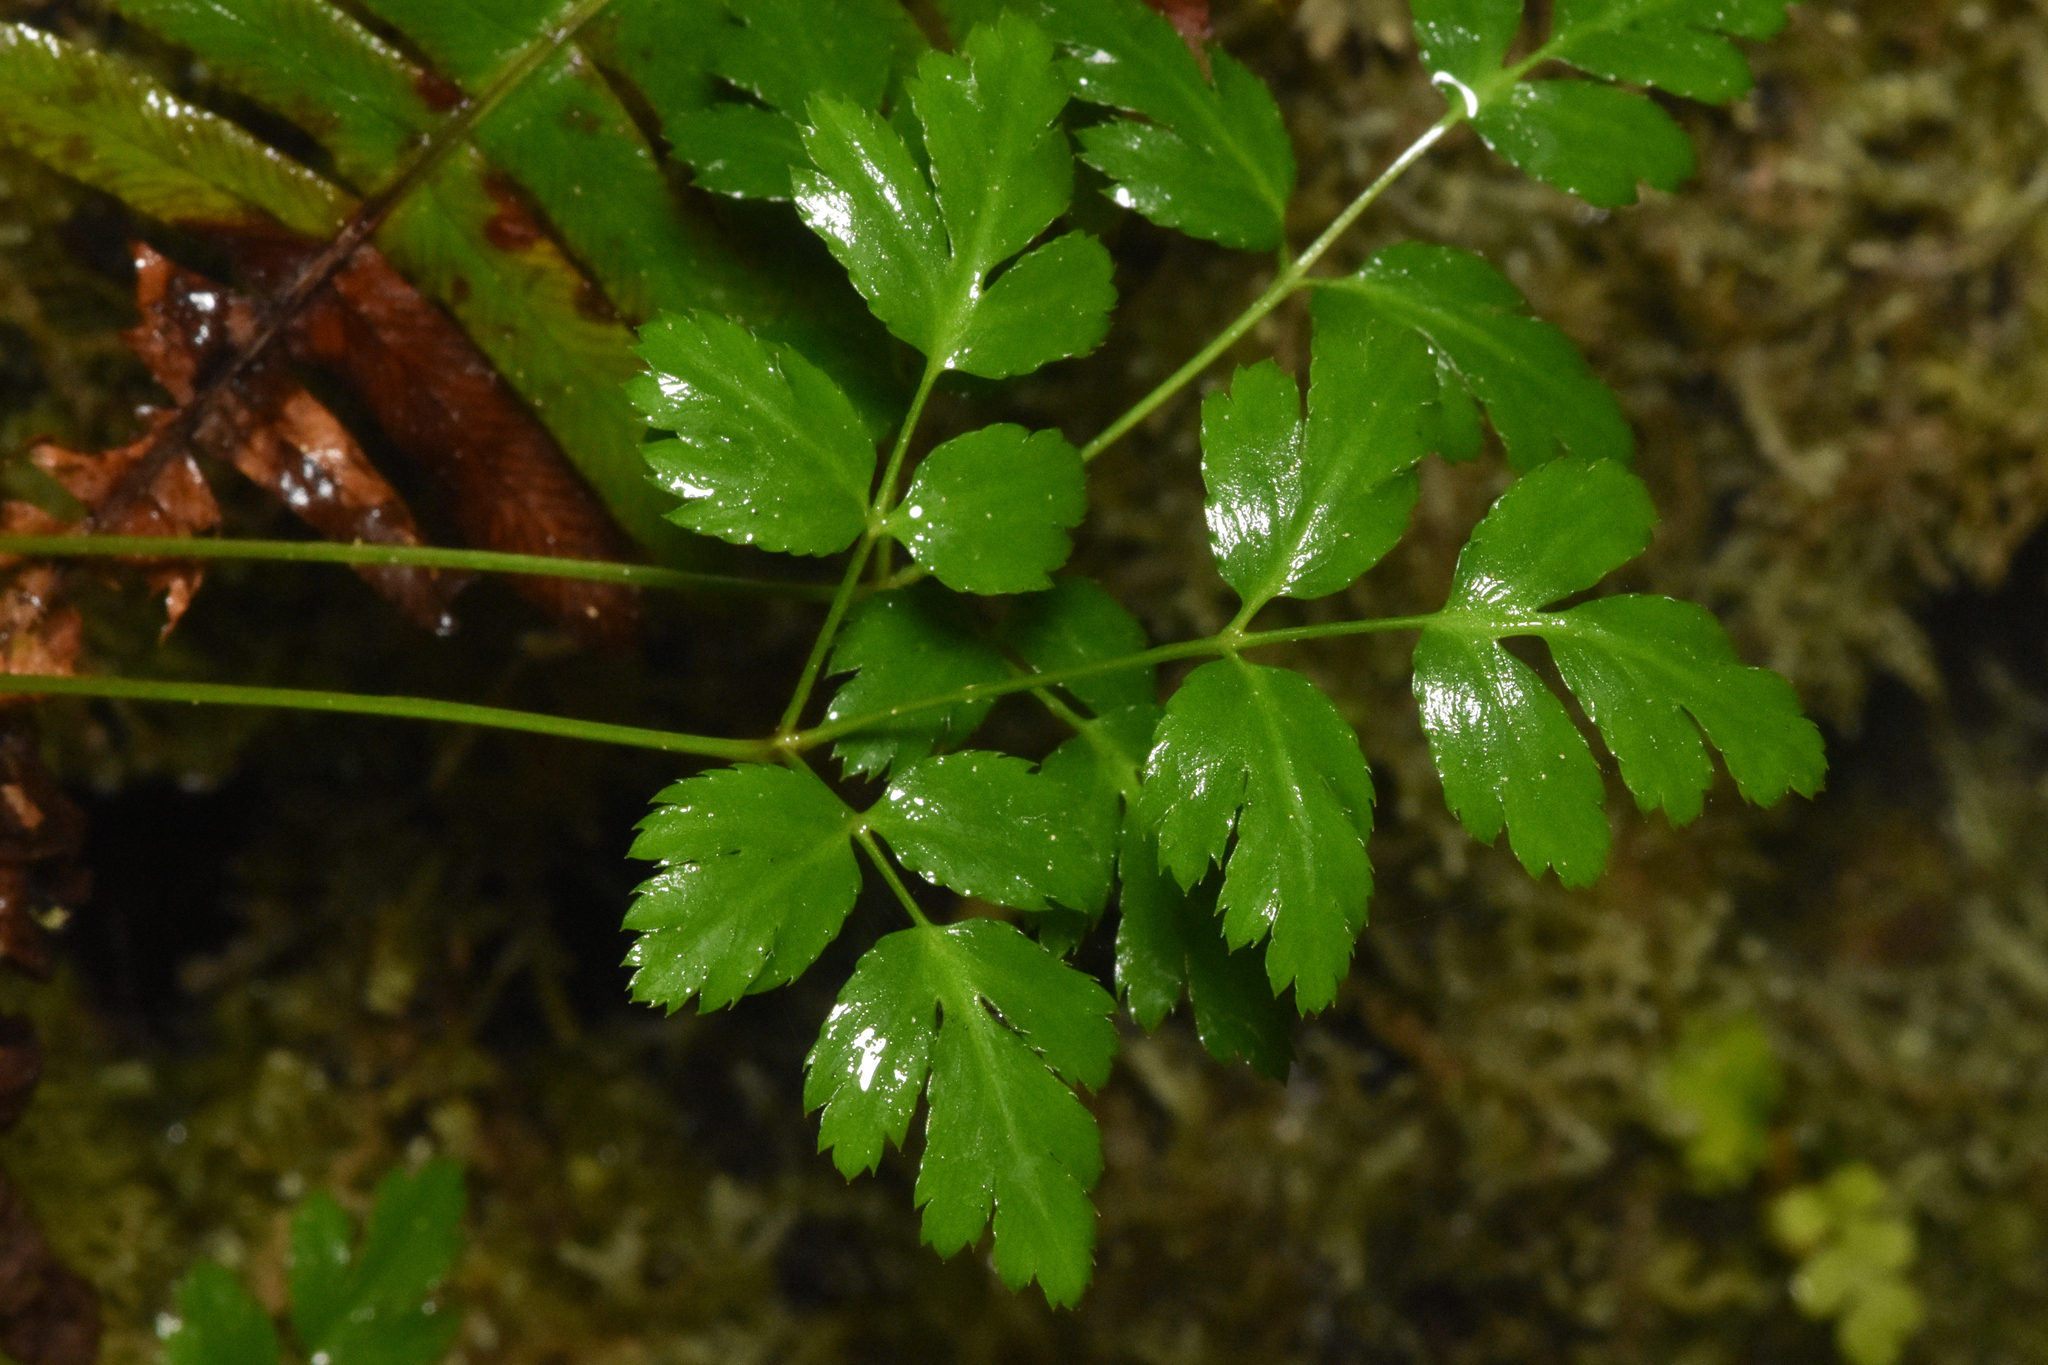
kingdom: Plantae
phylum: Tracheophyta
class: Magnoliopsida
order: Ranunculales
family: Ranunculaceae
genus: Coptis
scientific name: Coptis aspleniifolia
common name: Fern-leaved goldthread
